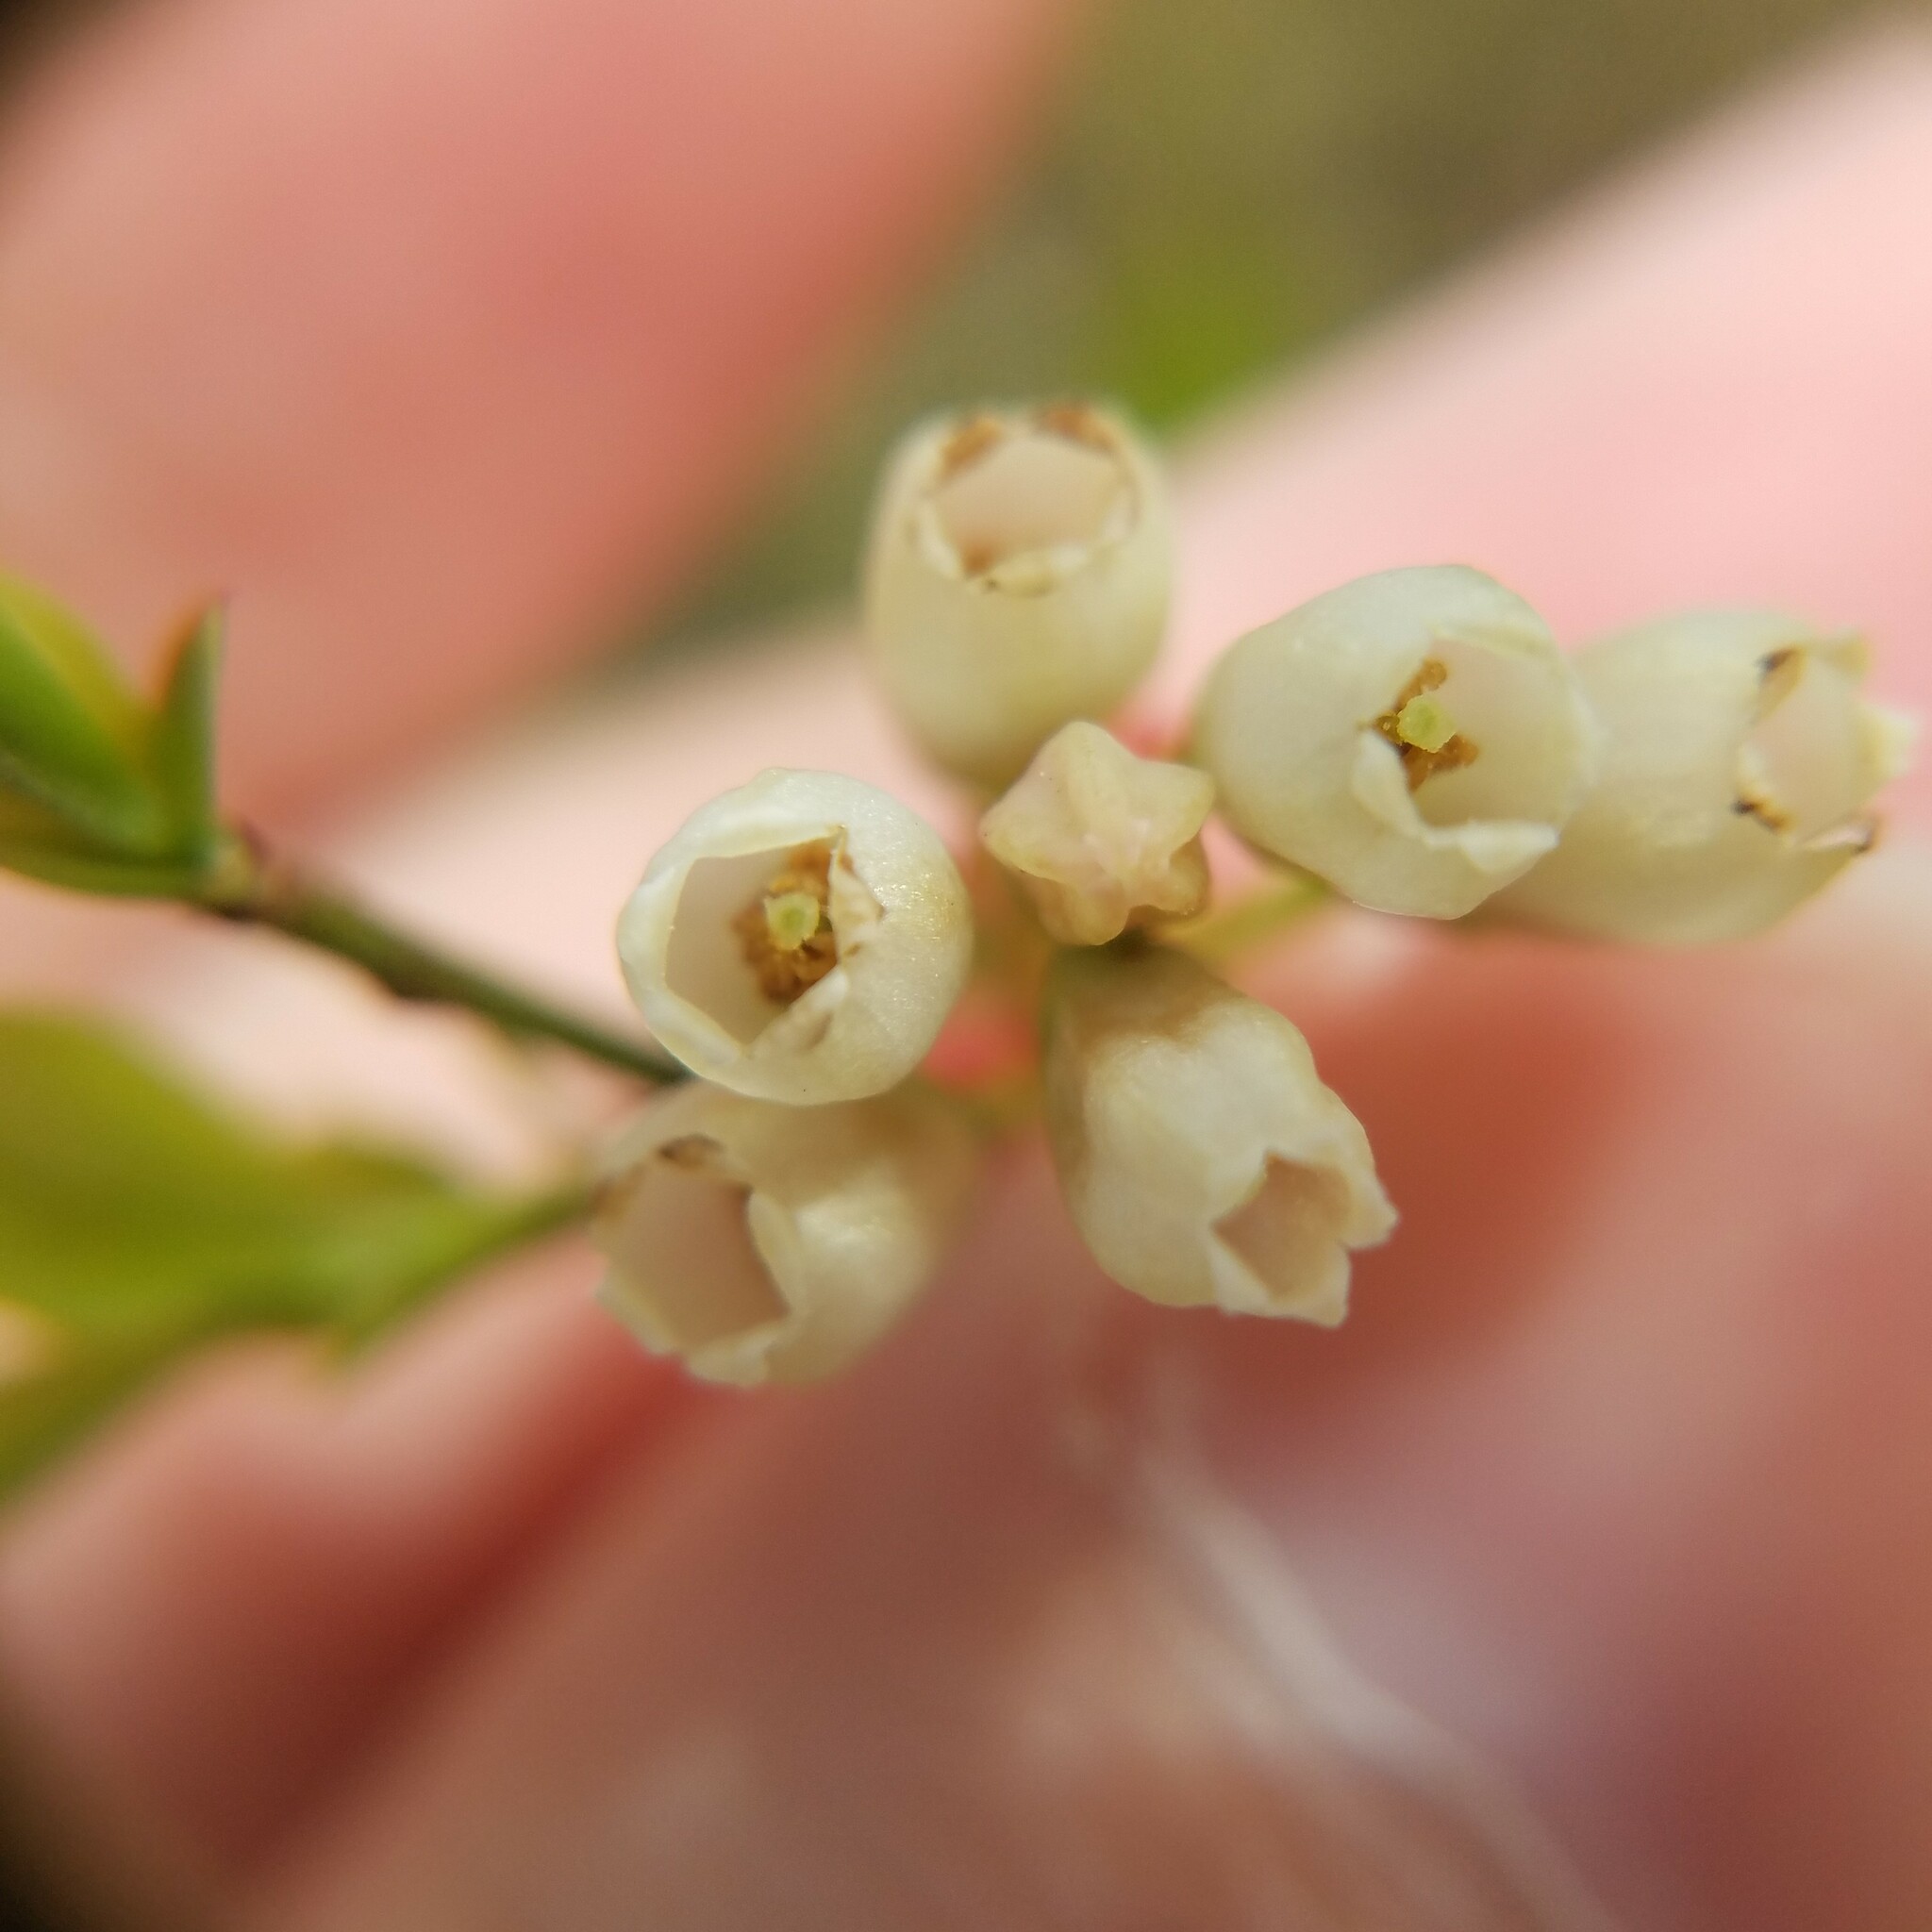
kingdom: Plantae
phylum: Tracheophyta
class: Magnoliopsida
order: Ericales
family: Ericaceae
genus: Vaccinium
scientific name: Vaccinium corymbosum
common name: Blueberry
